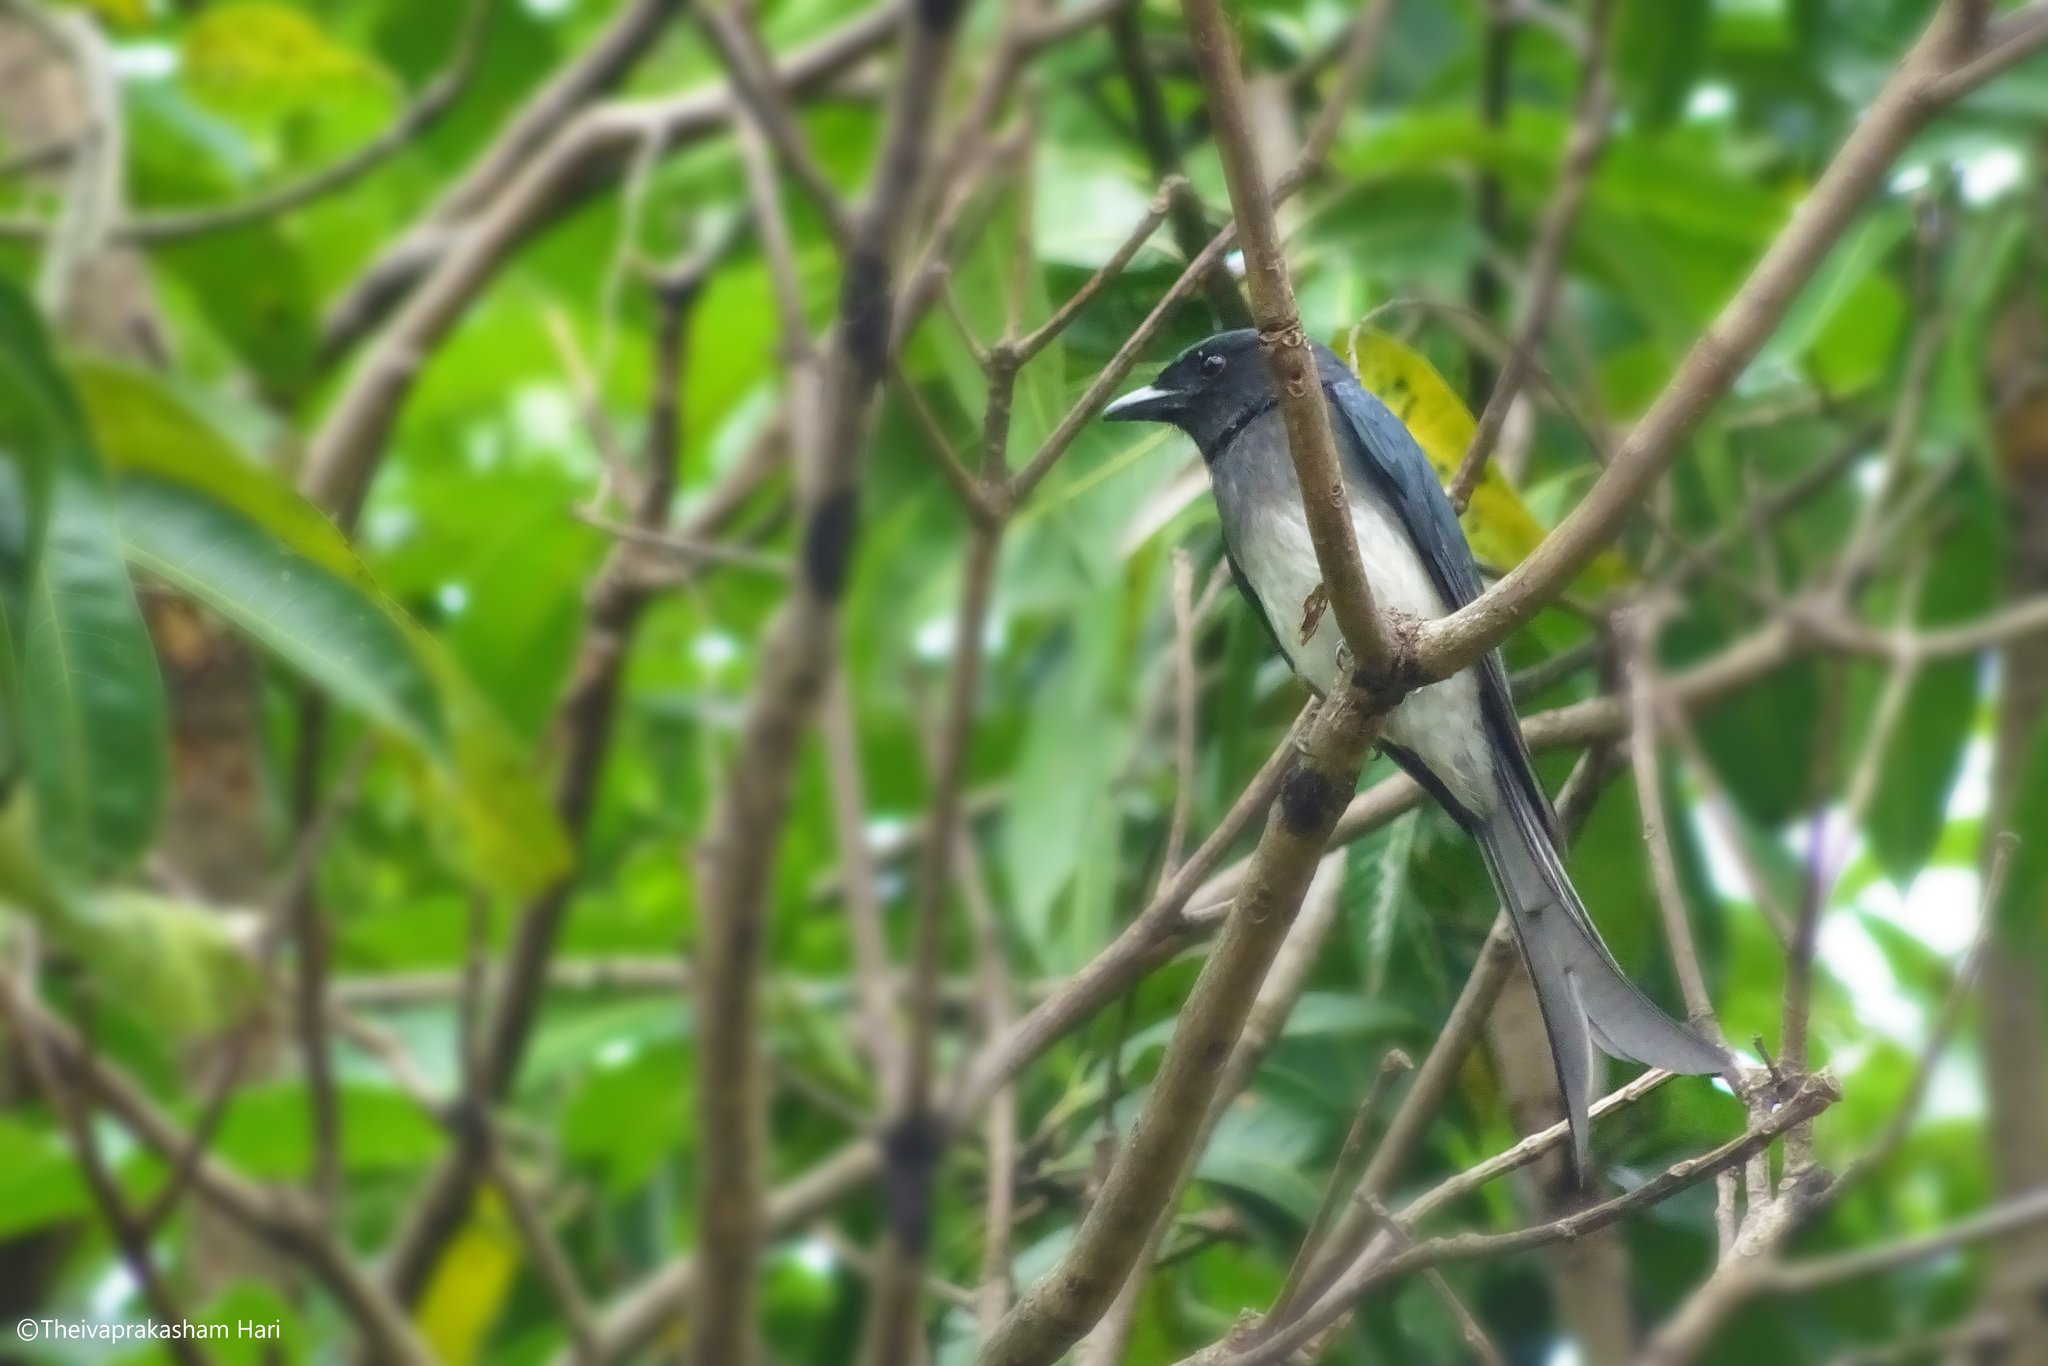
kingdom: Animalia
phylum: Chordata
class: Aves
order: Passeriformes
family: Dicruridae
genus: Dicrurus
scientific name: Dicrurus caerulescens
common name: White-bellied drongo
